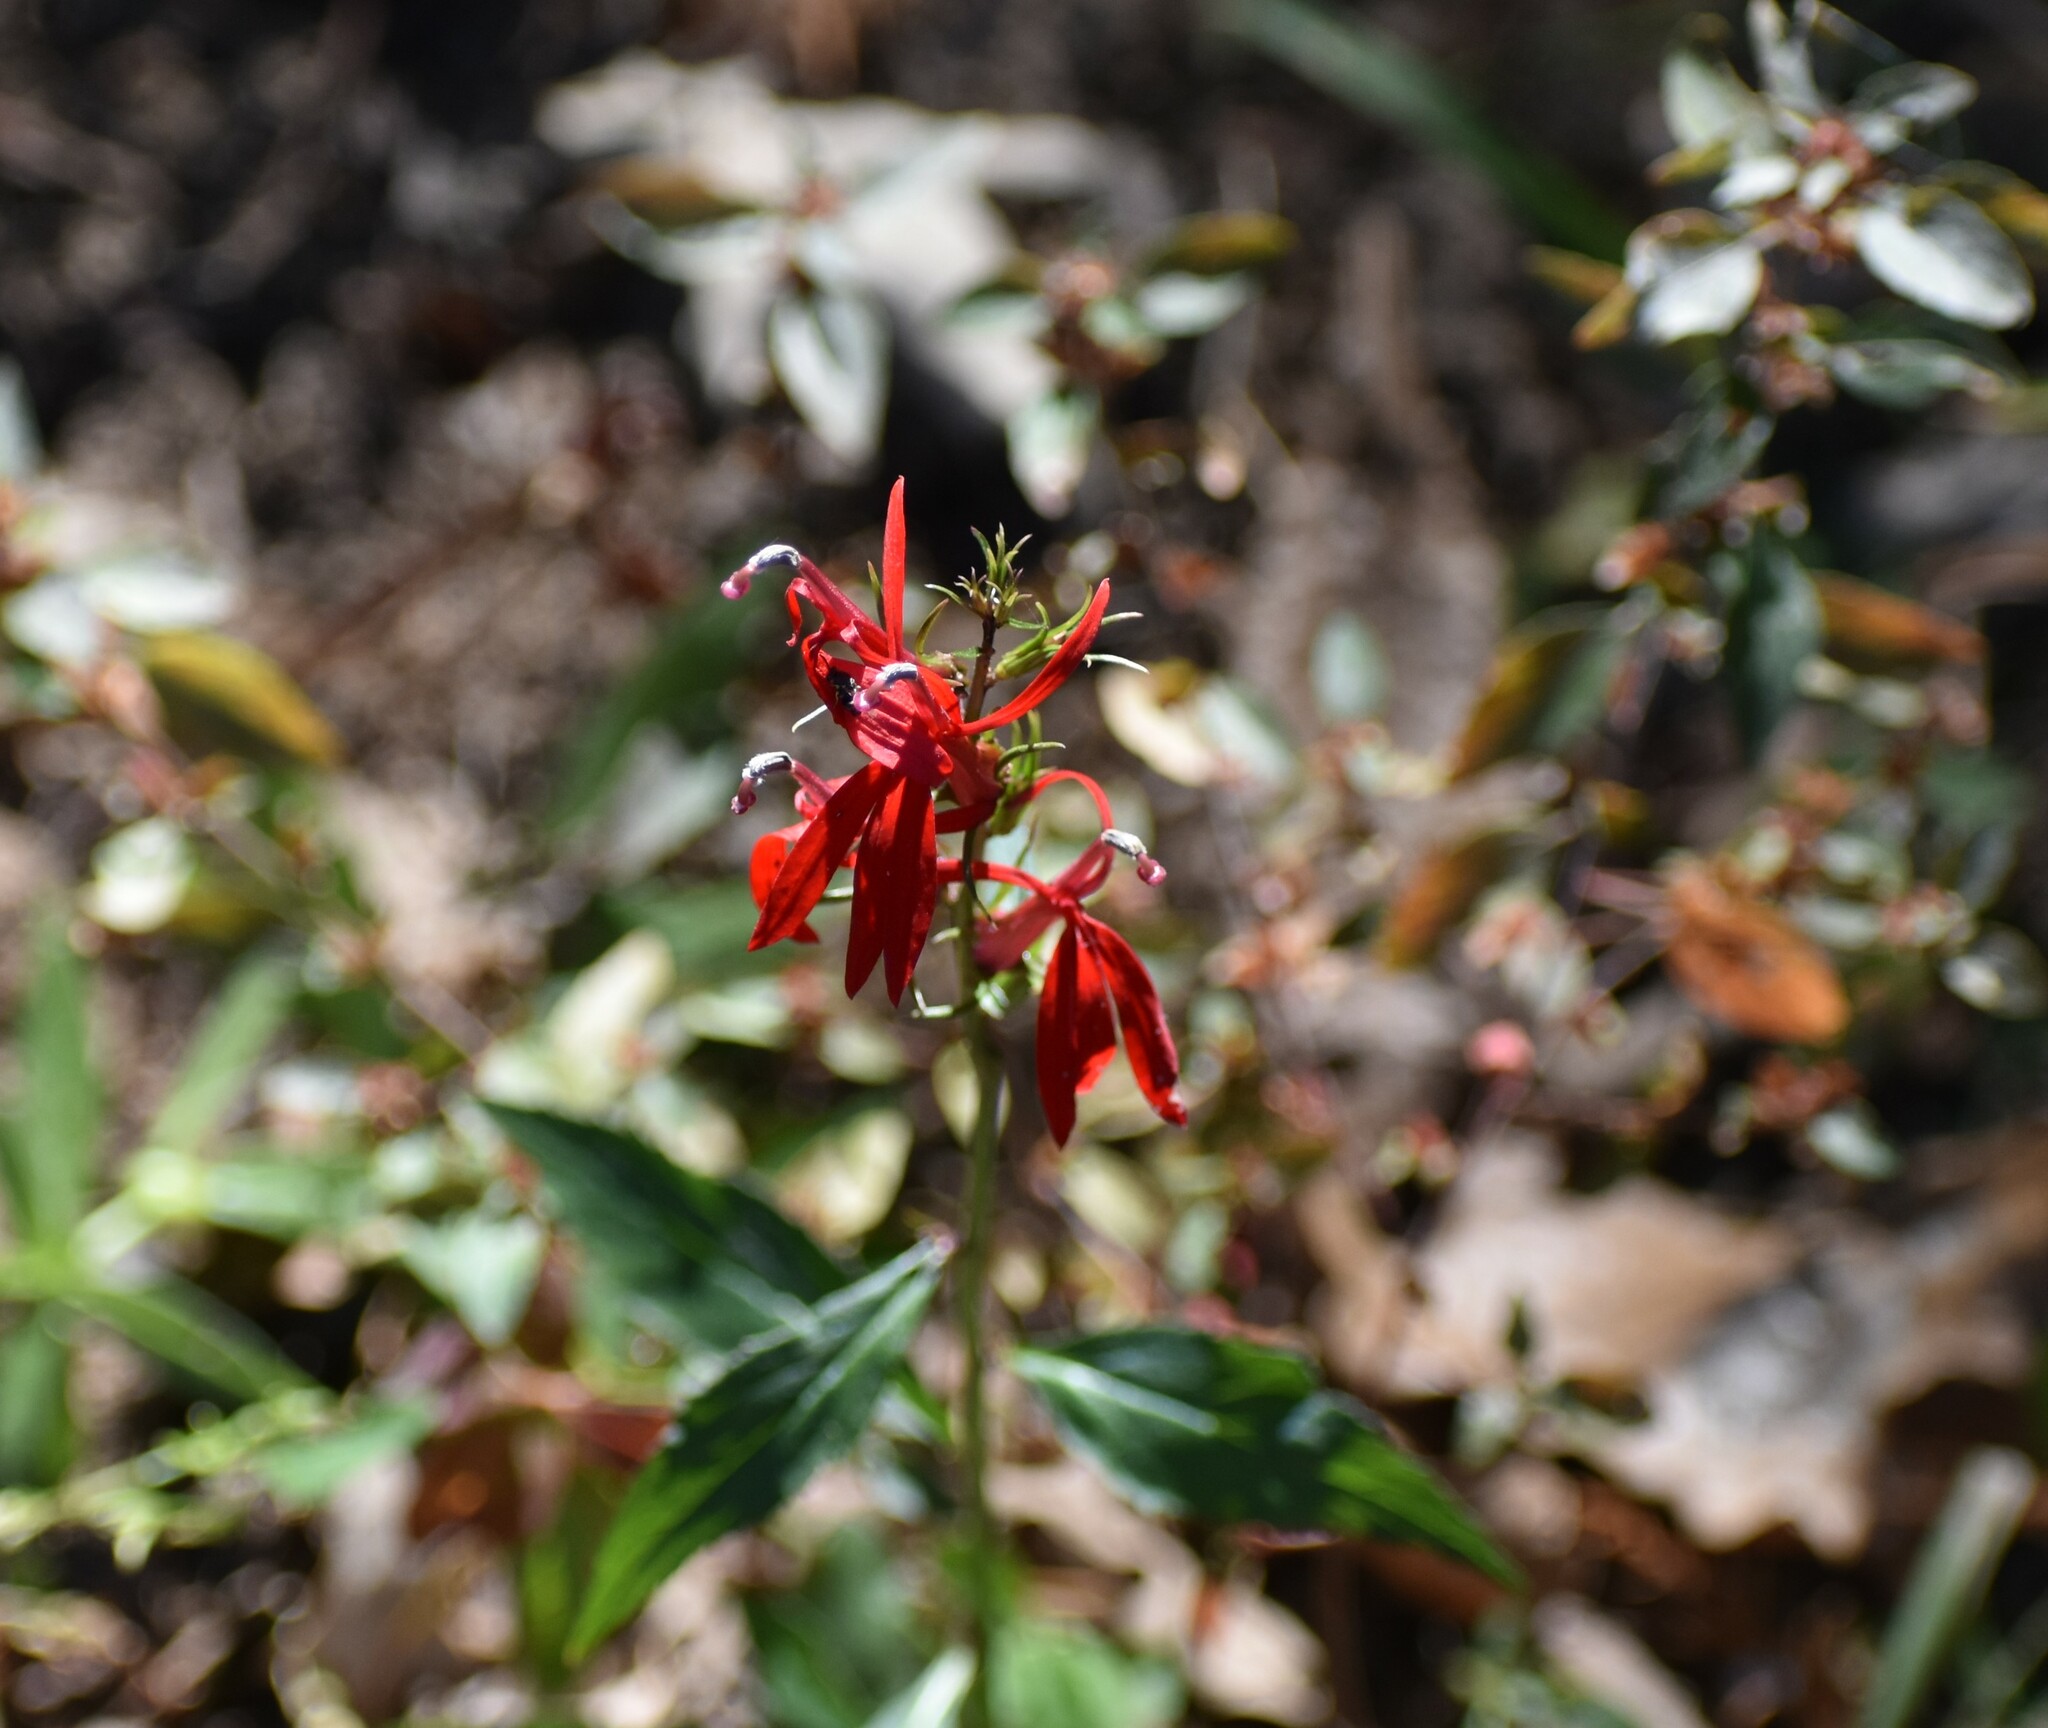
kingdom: Plantae
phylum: Tracheophyta
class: Magnoliopsida
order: Asterales
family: Campanulaceae
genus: Lobelia
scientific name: Lobelia cardinalis
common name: Cardinal flower
